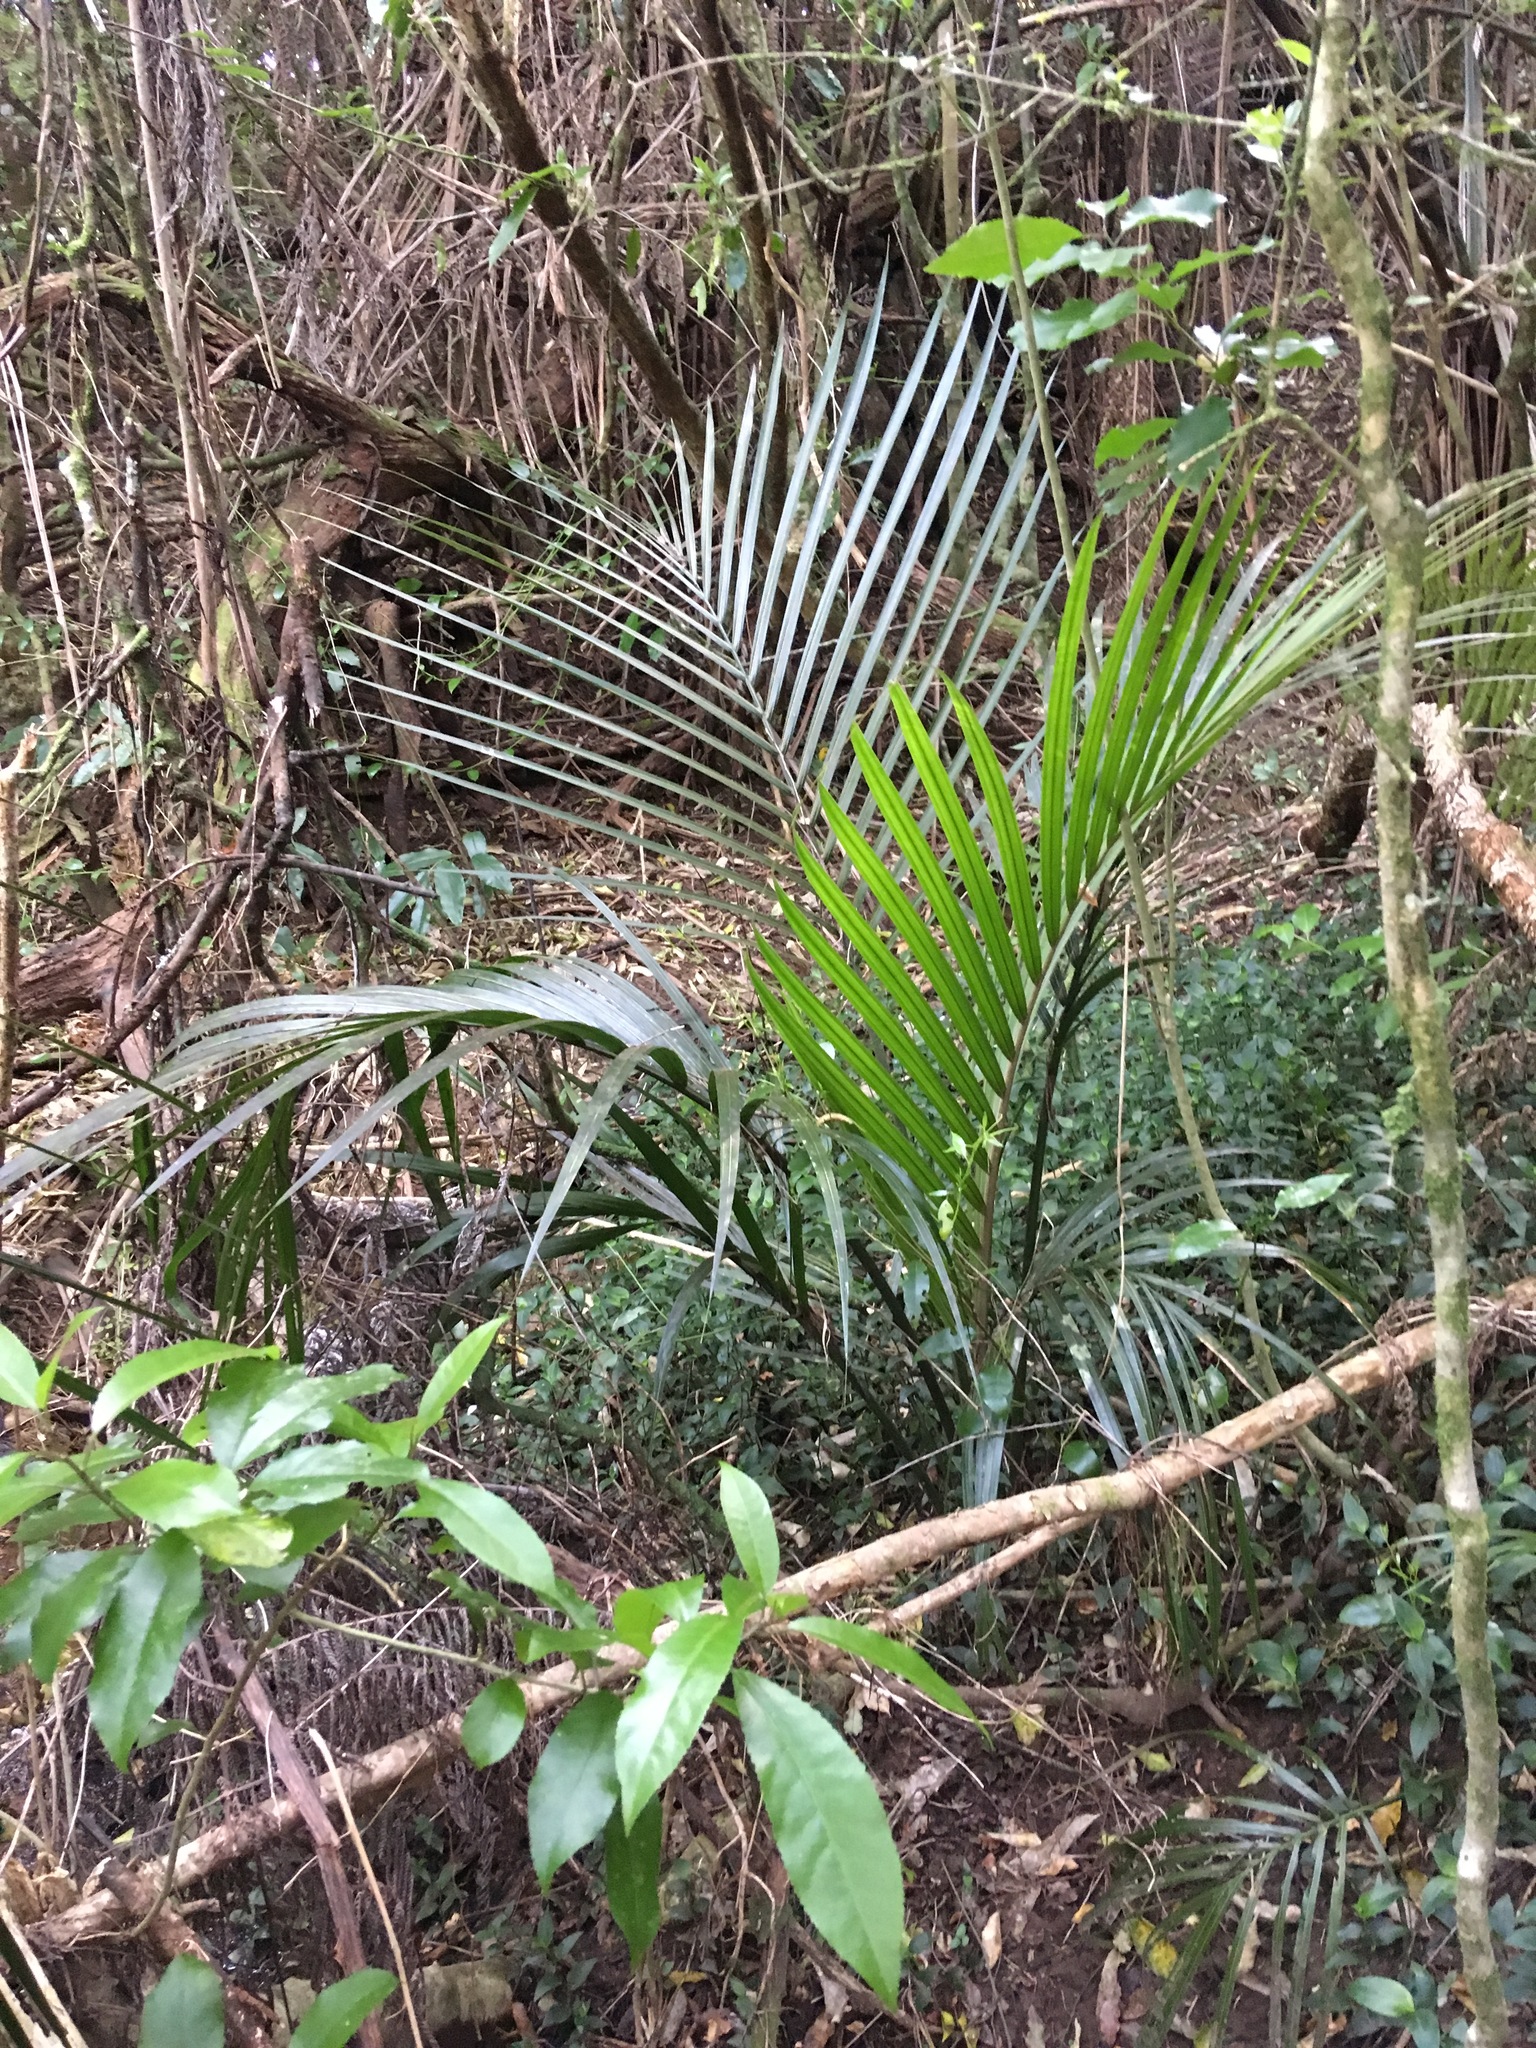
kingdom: Plantae
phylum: Tracheophyta
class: Liliopsida
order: Arecales
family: Arecaceae
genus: Rhopalostylis
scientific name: Rhopalostylis sapida
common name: Feather-duster palm
